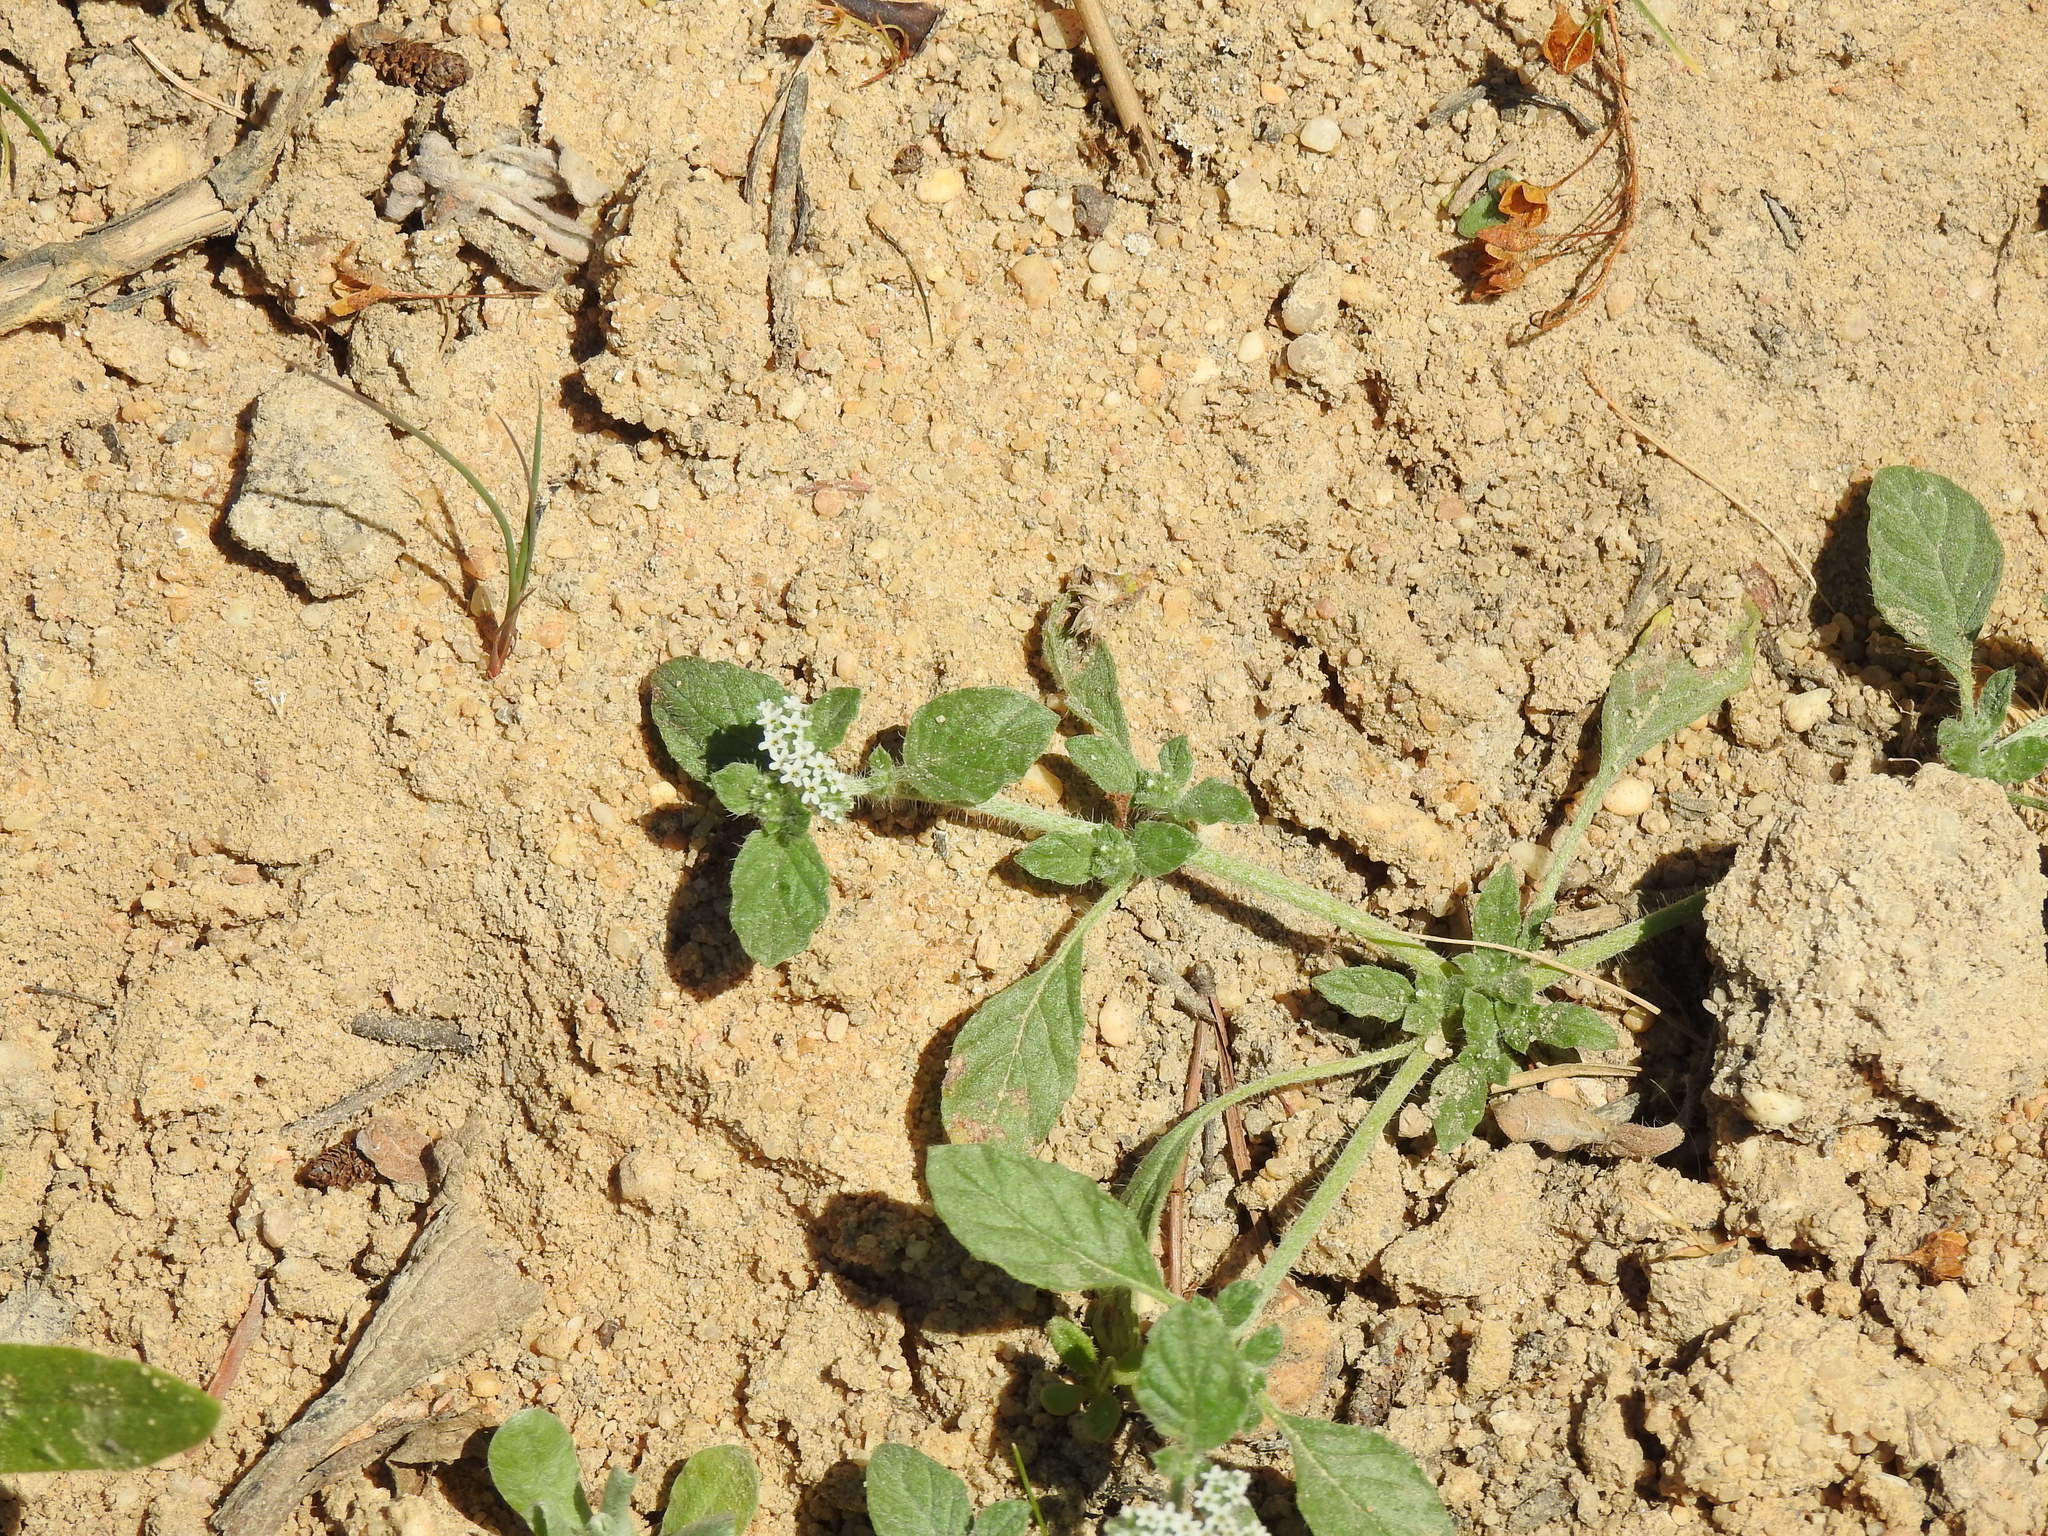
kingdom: Plantae
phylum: Tracheophyta
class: Magnoliopsida
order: Boraginales
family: Heliotropiaceae
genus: Heliotropium
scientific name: Heliotropium supinum
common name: Dwarf heliotrope
